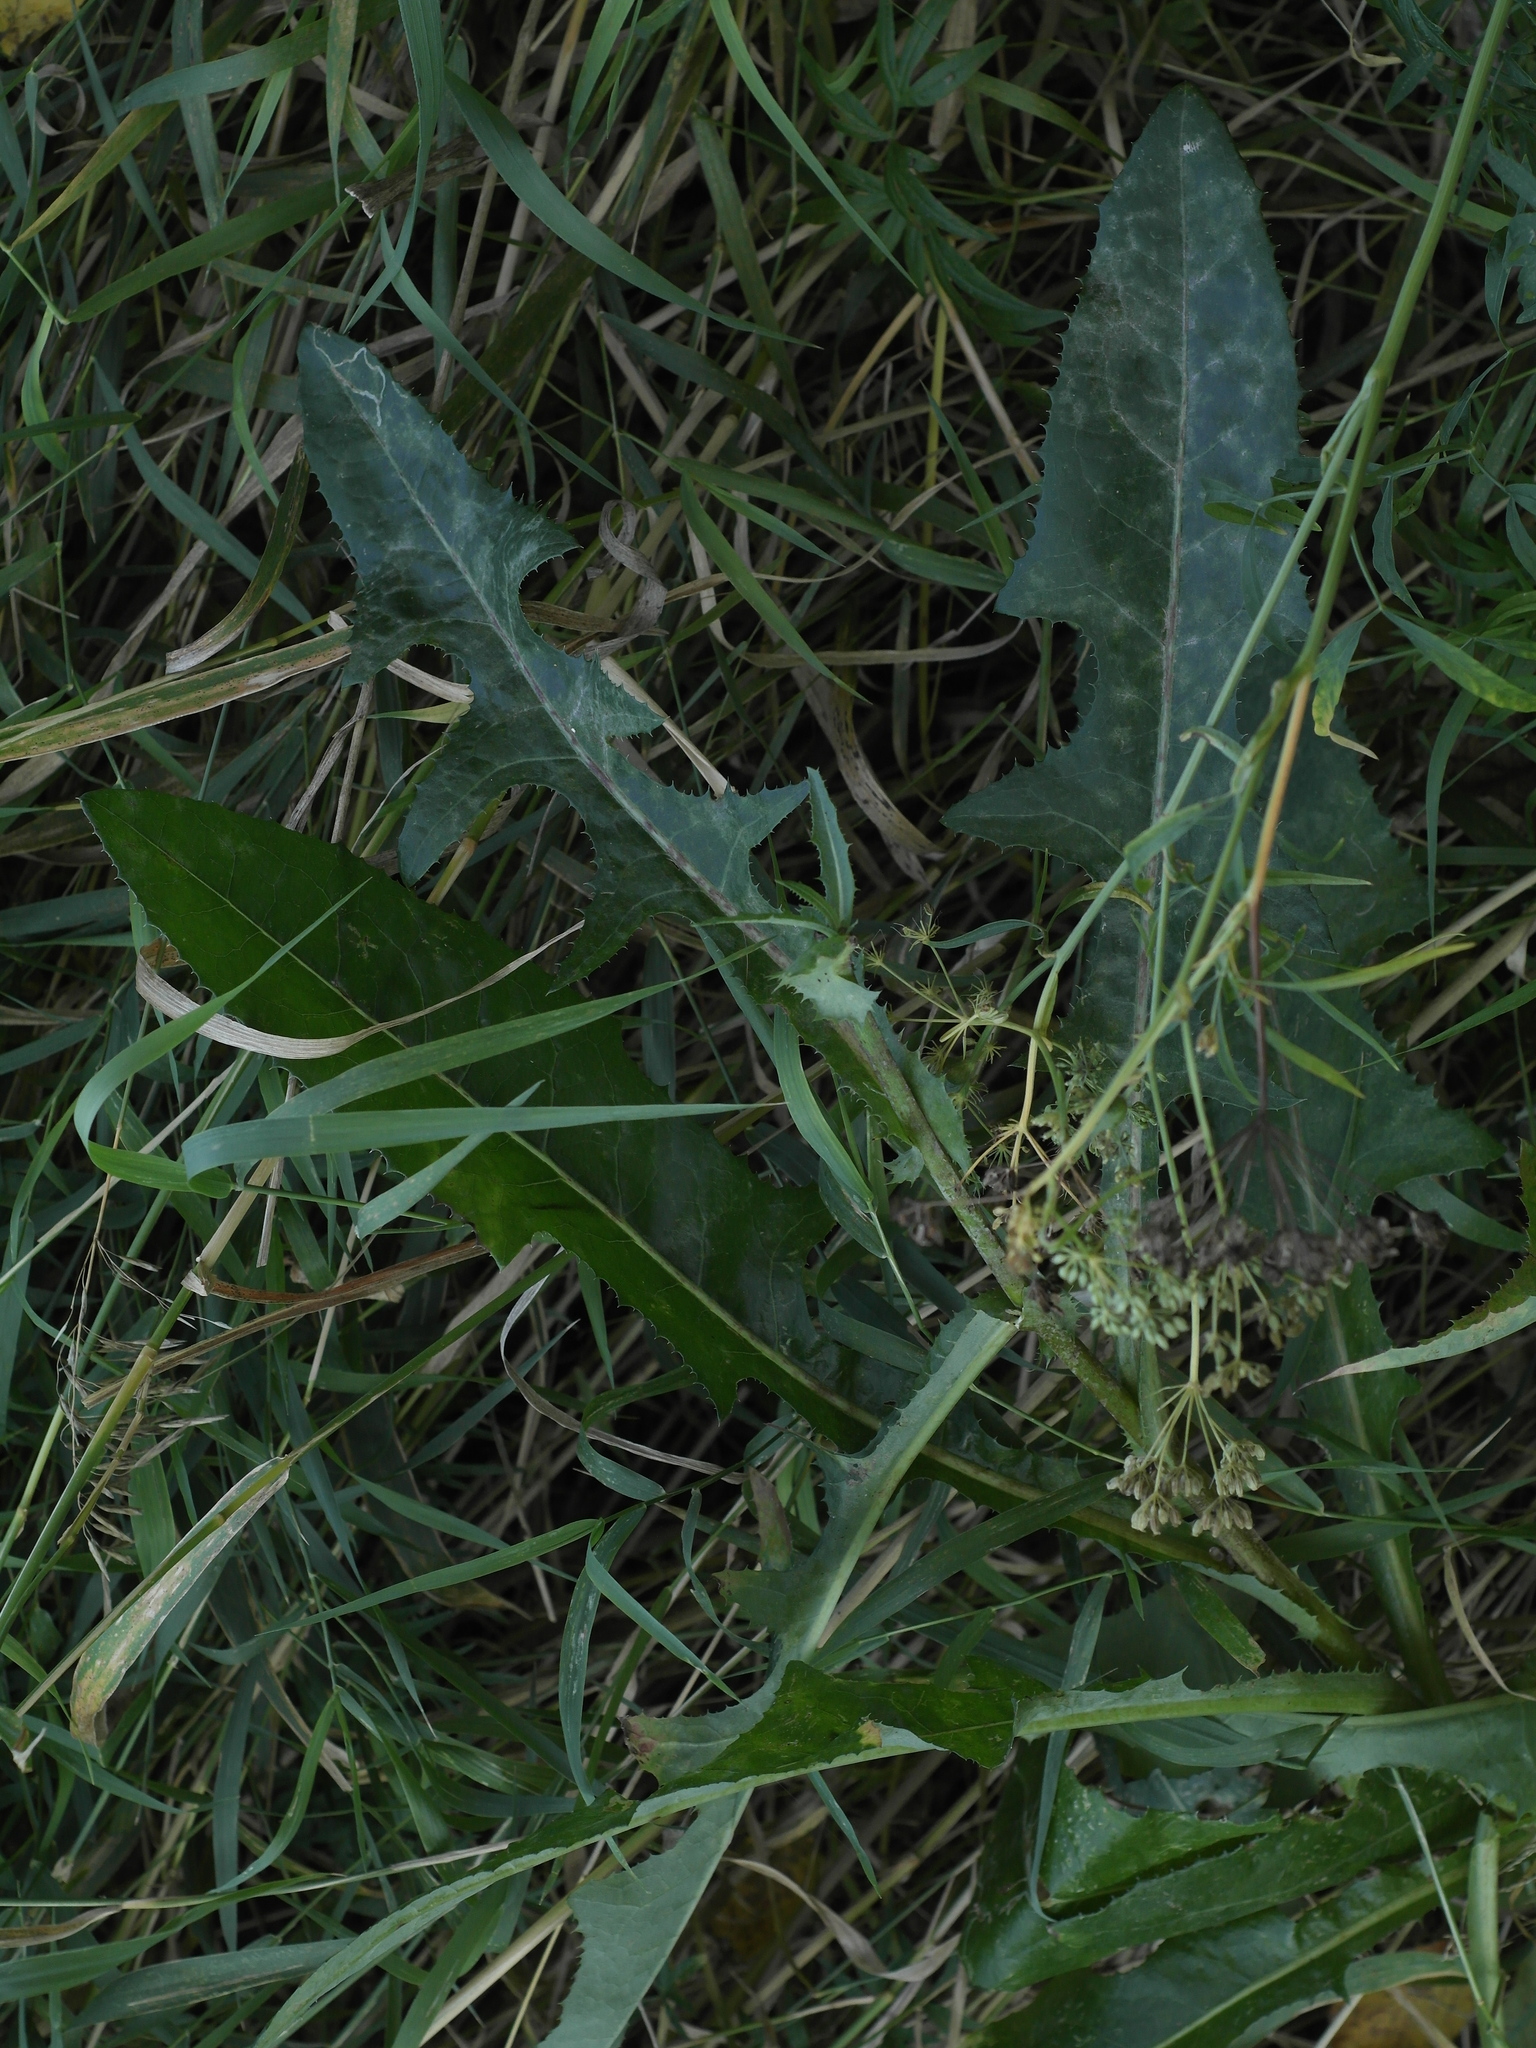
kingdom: Plantae
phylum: Tracheophyta
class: Magnoliopsida
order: Asterales
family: Asteraceae
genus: Sonchus
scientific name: Sonchus arvensis
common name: Perennial sow-thistle
